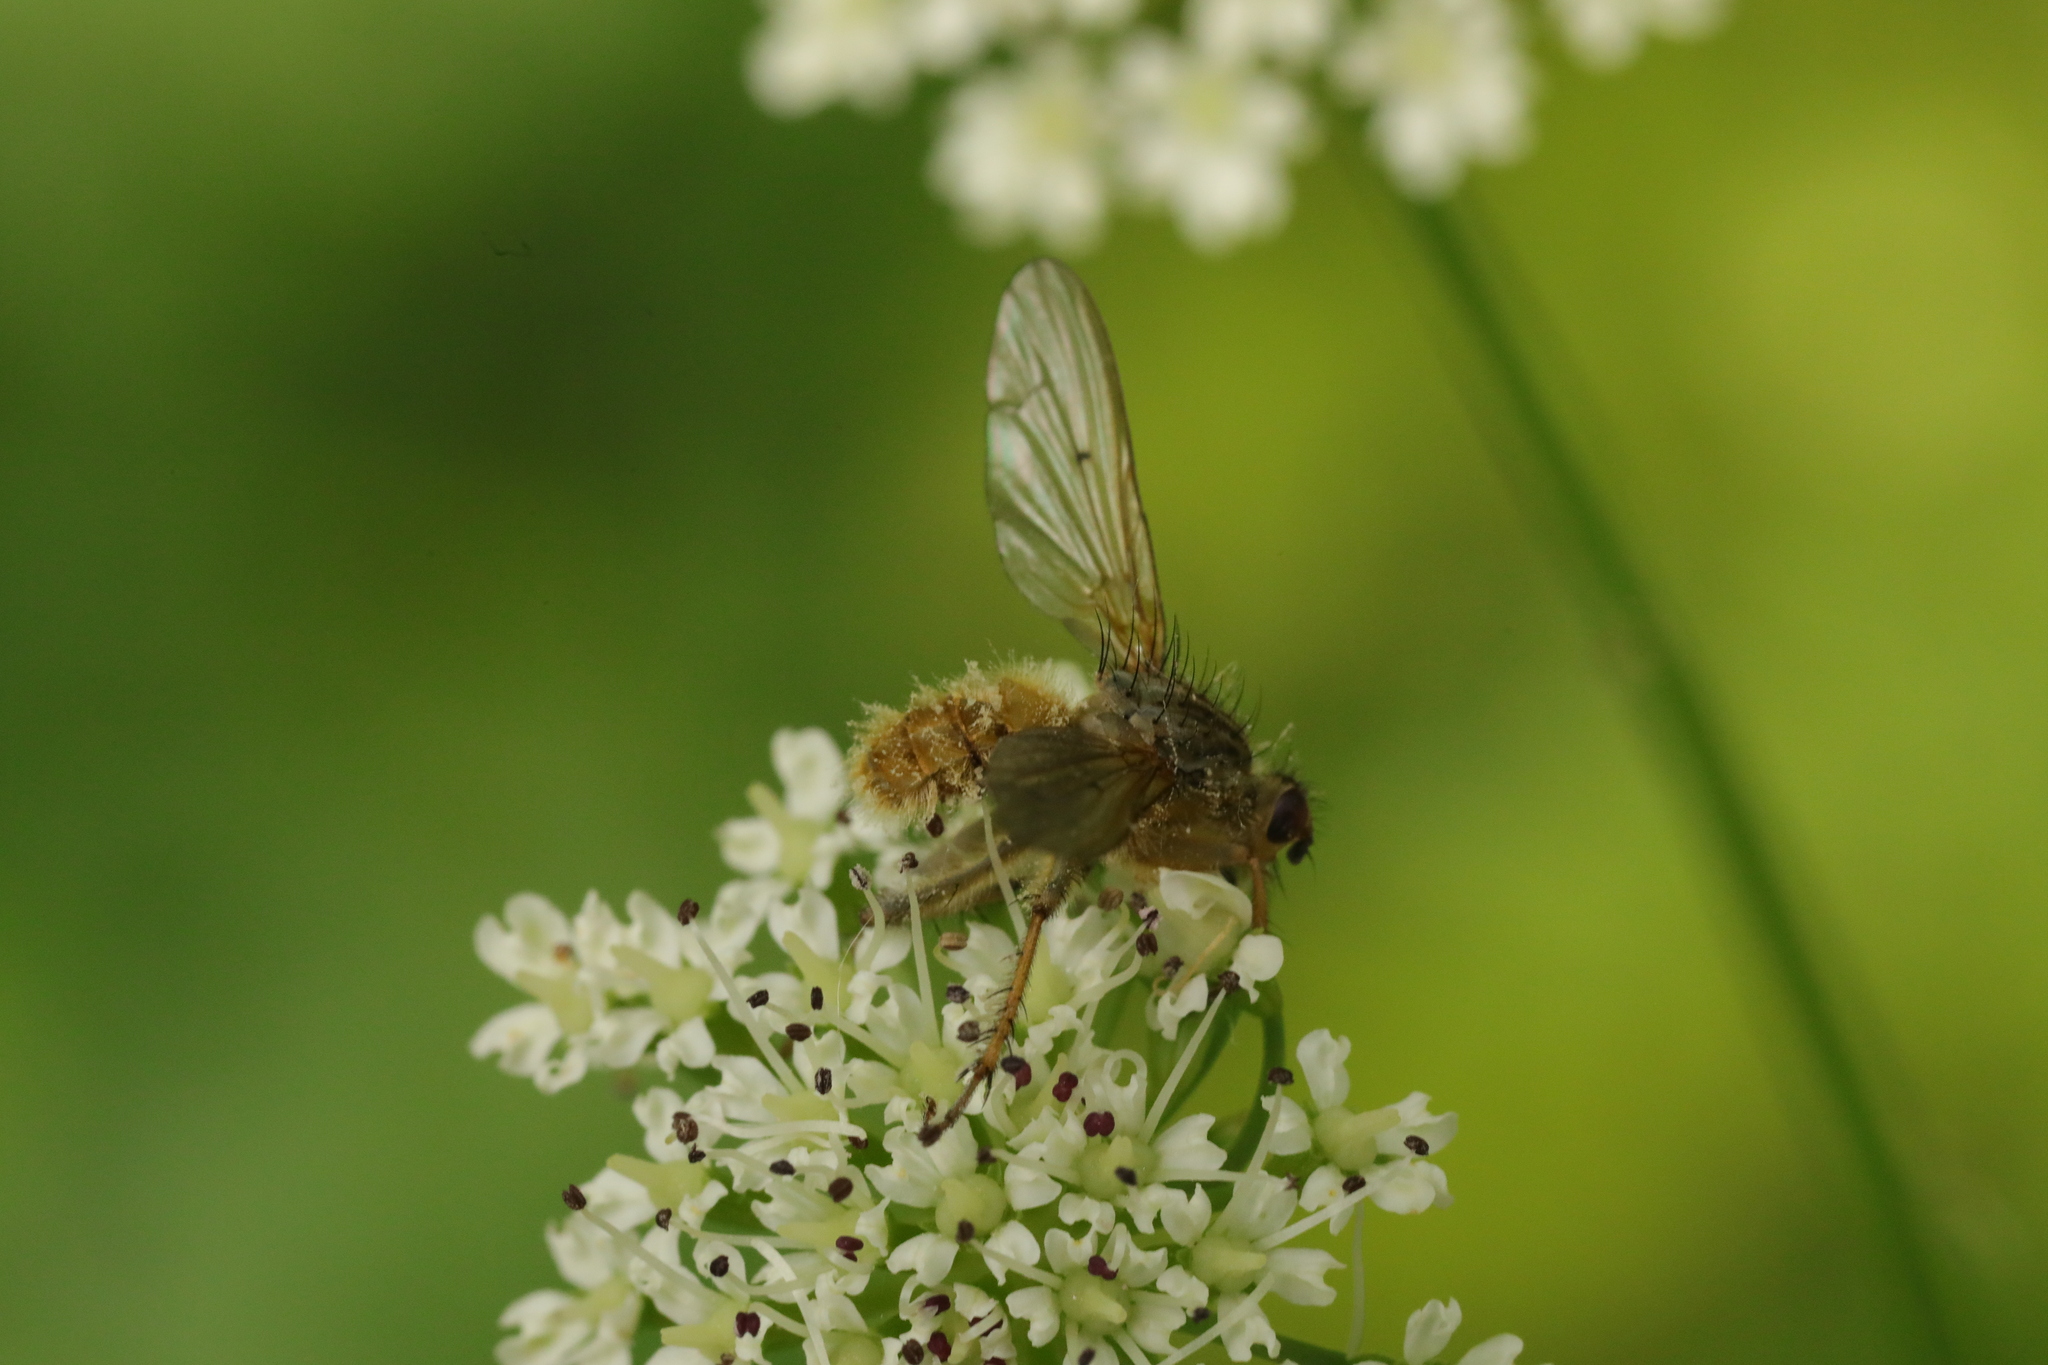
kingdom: Animalia
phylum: Arthropoda
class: Insecta
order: Diptera
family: Scathophagidae
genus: Scathophaga
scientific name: Scathophaga stercoraria
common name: Yellow dung fly
